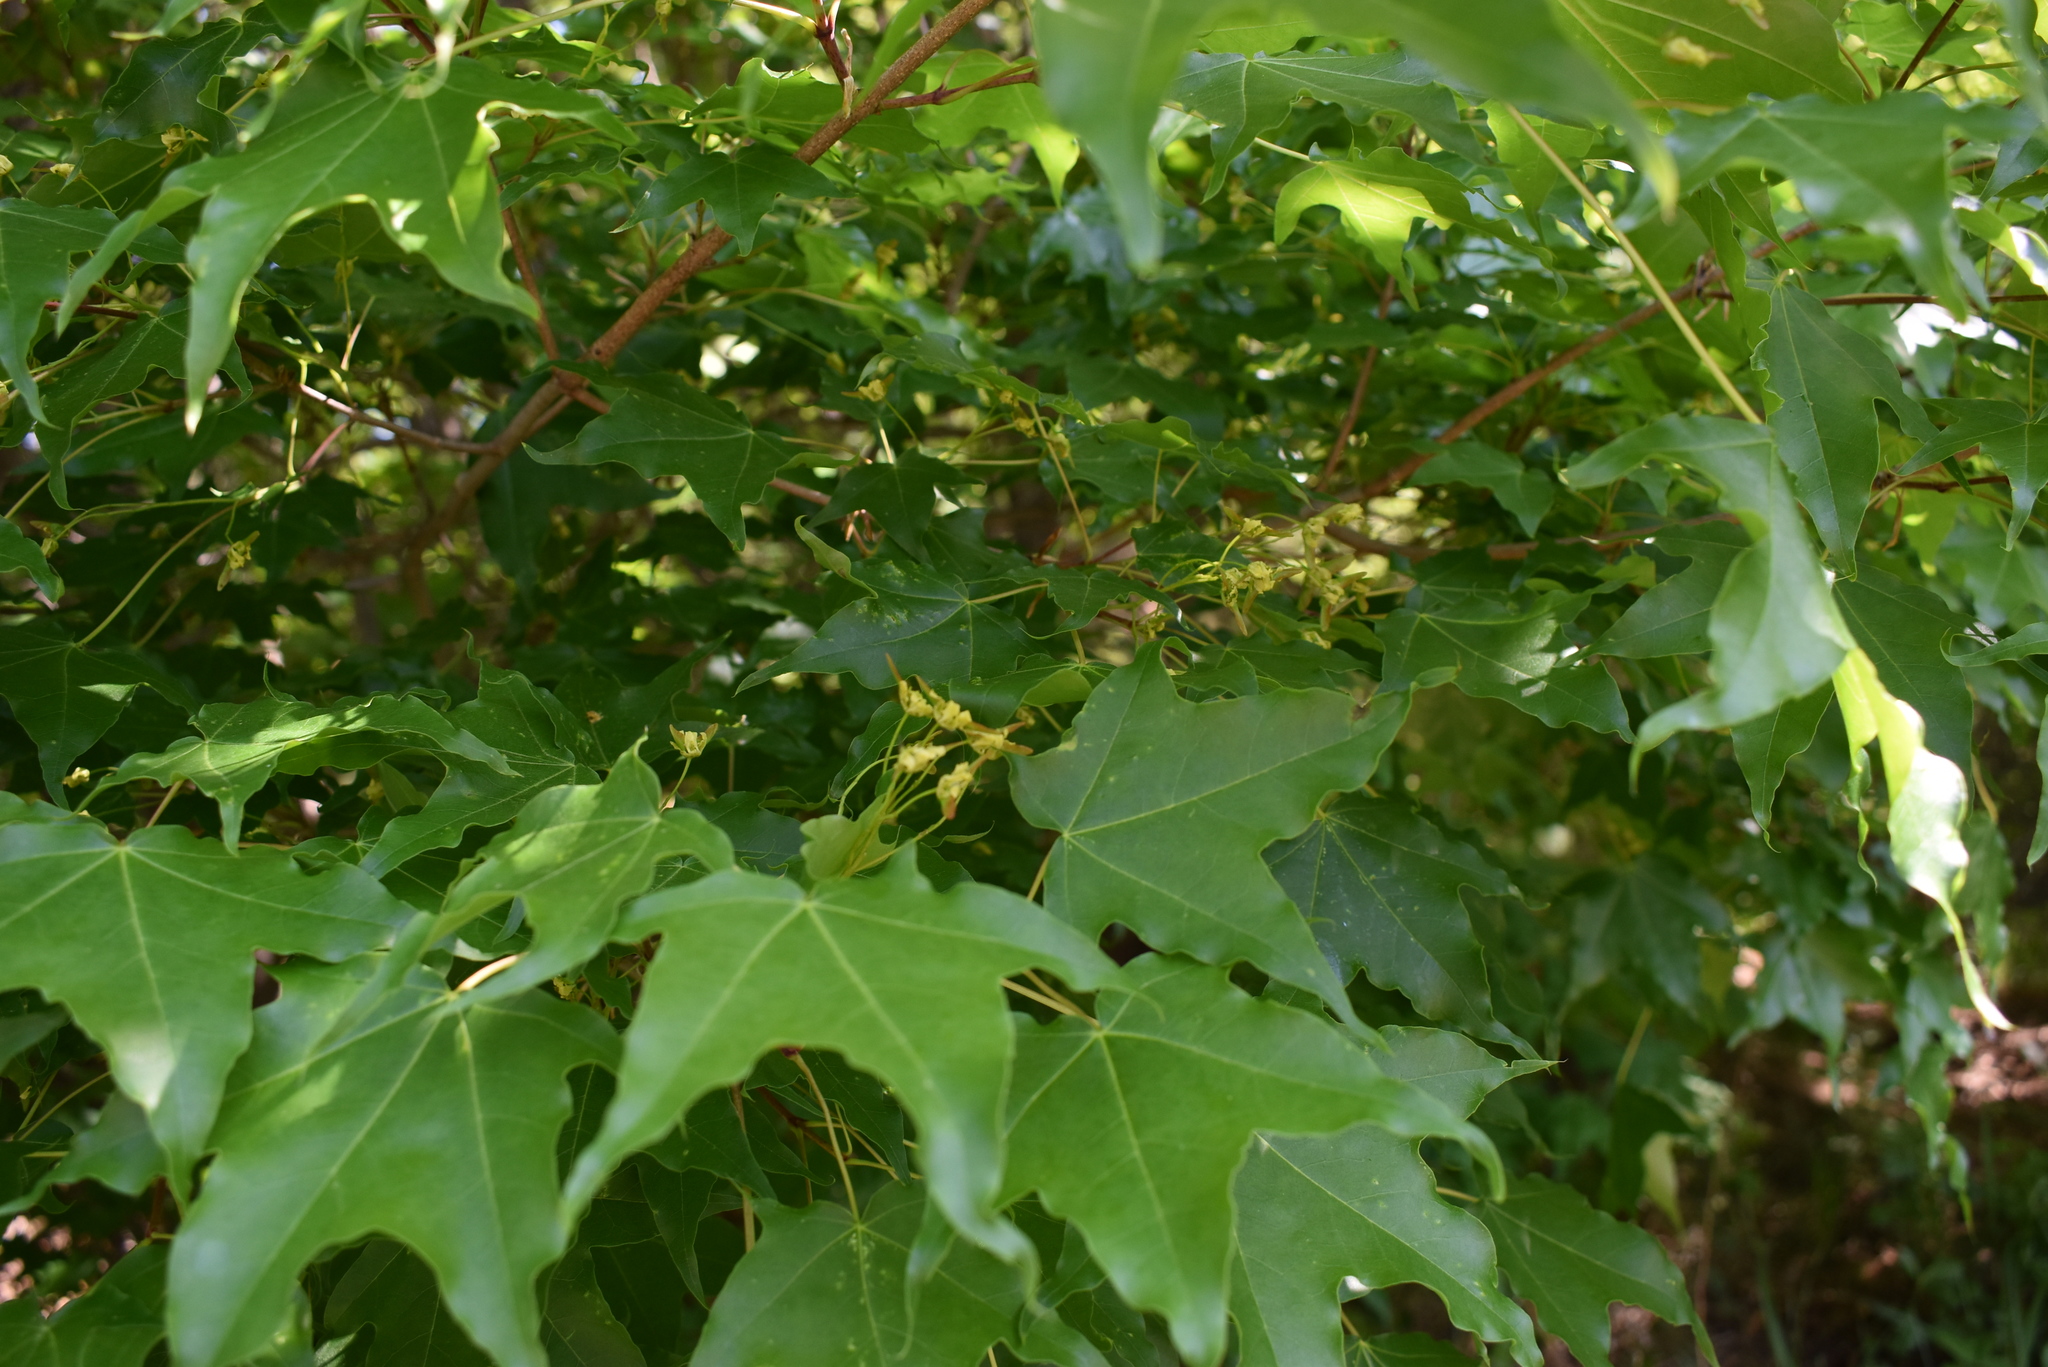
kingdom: Plantae
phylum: Tracheophyta
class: Magnoliopsida
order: Sapindales
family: Sapindaceae
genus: Acer
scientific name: Acer pictum
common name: The painted maple
